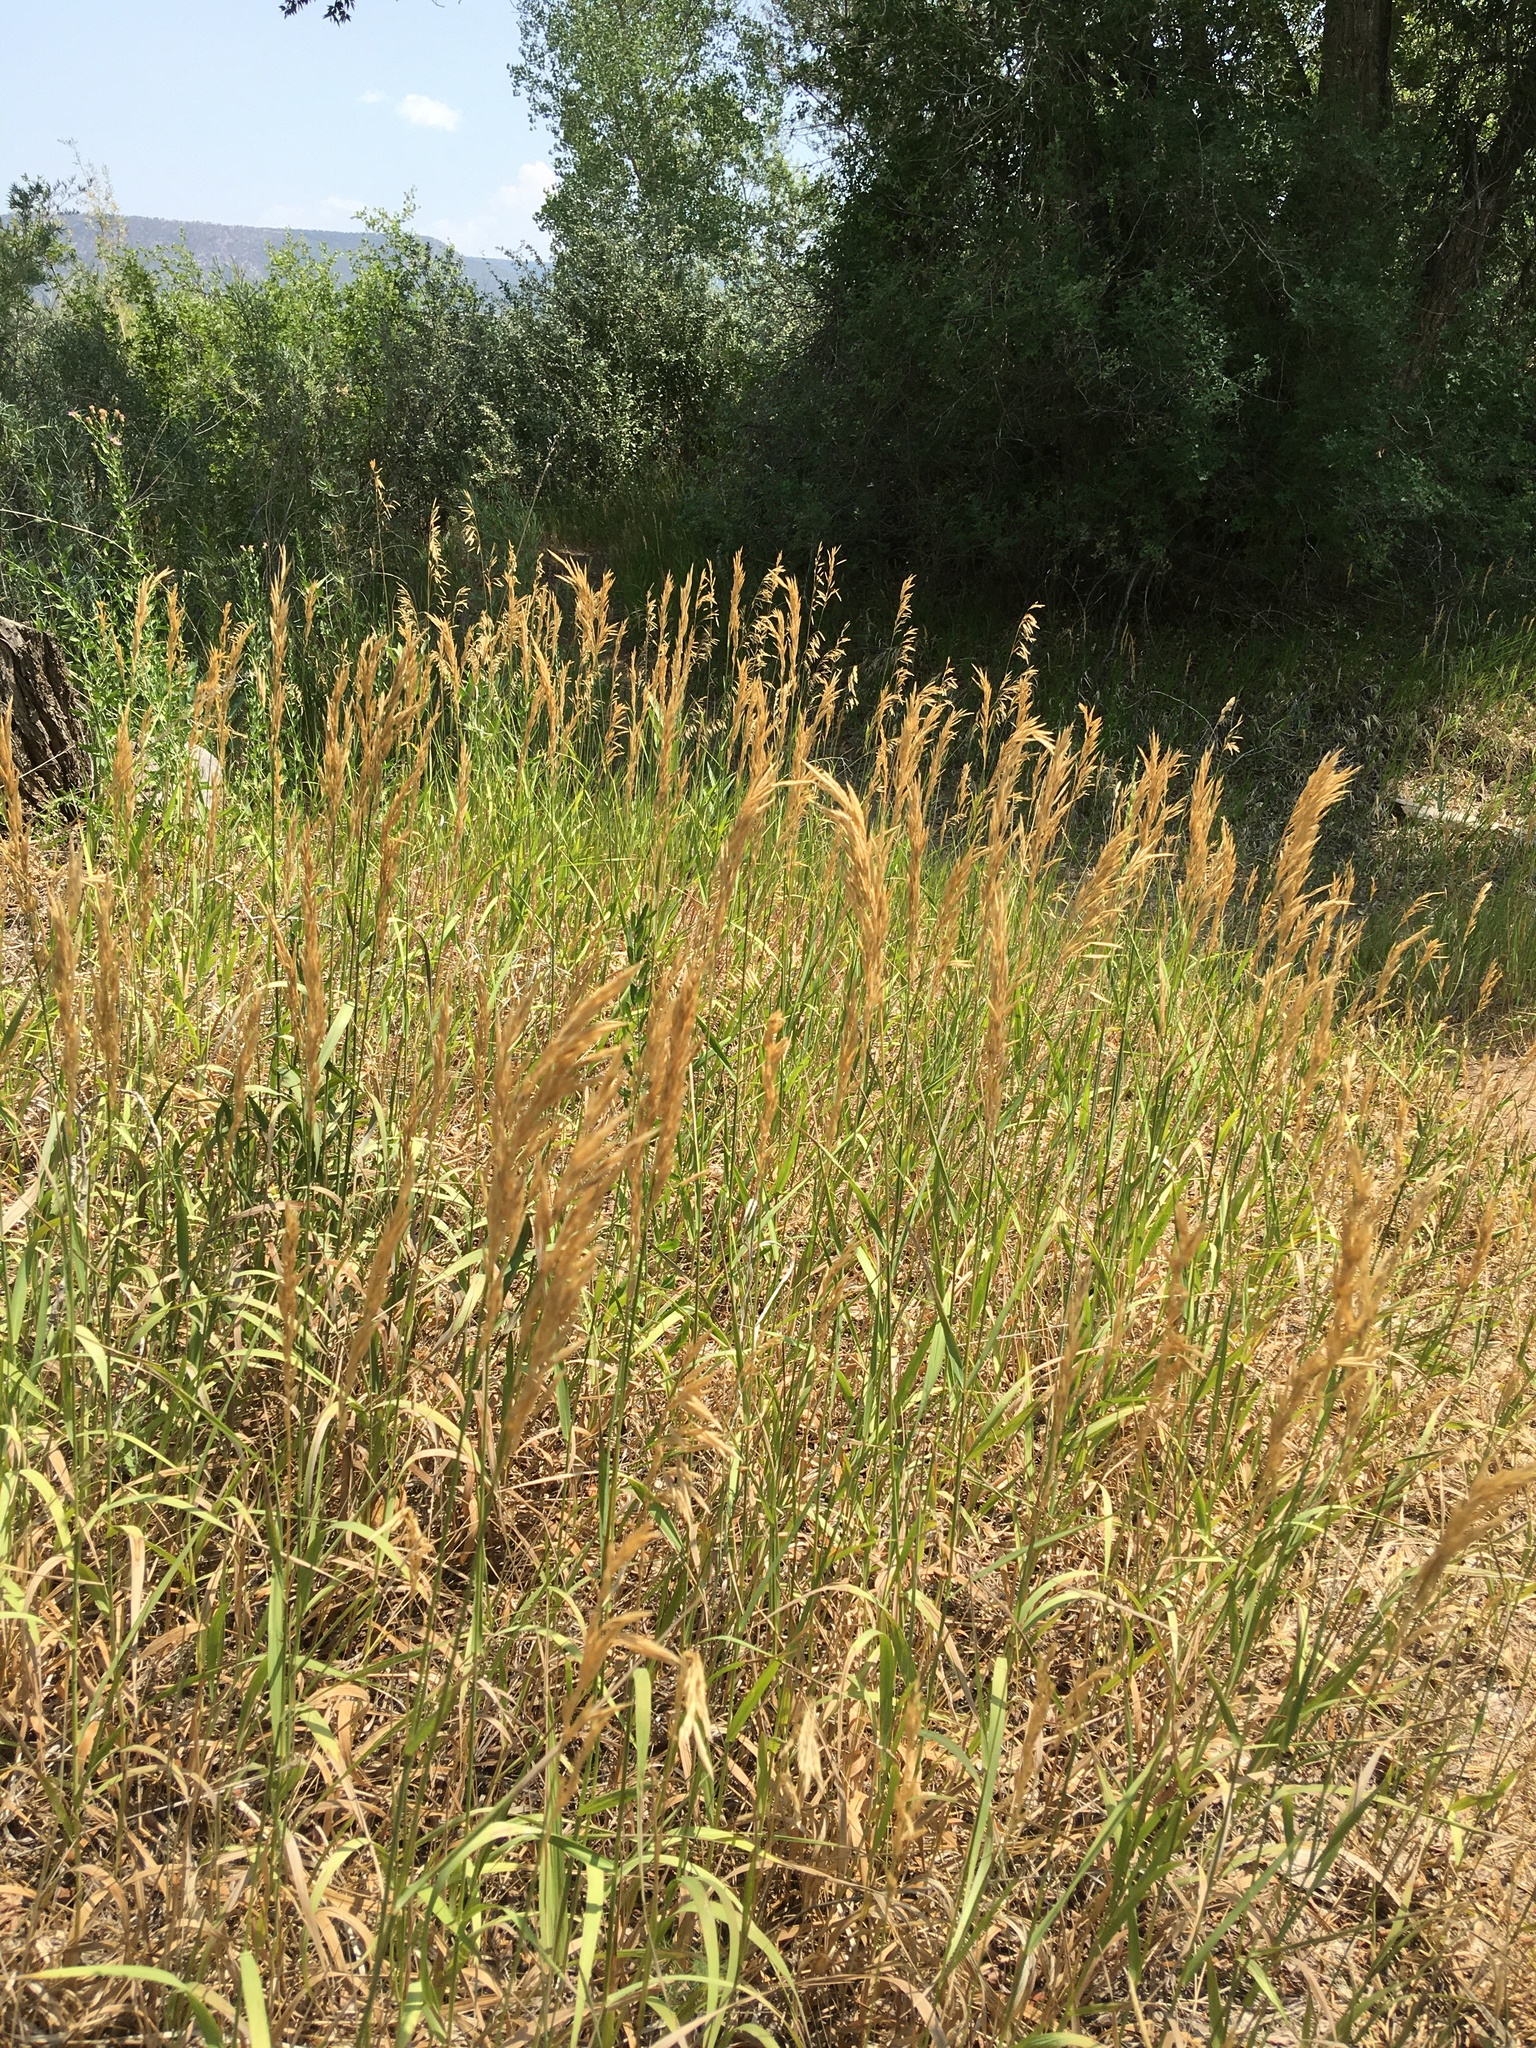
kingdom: Plantae
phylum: Tracheophyta
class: Liliopsida
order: Poales
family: Poaceae
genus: Bromus
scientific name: Bromus inermis
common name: Smooth brome
